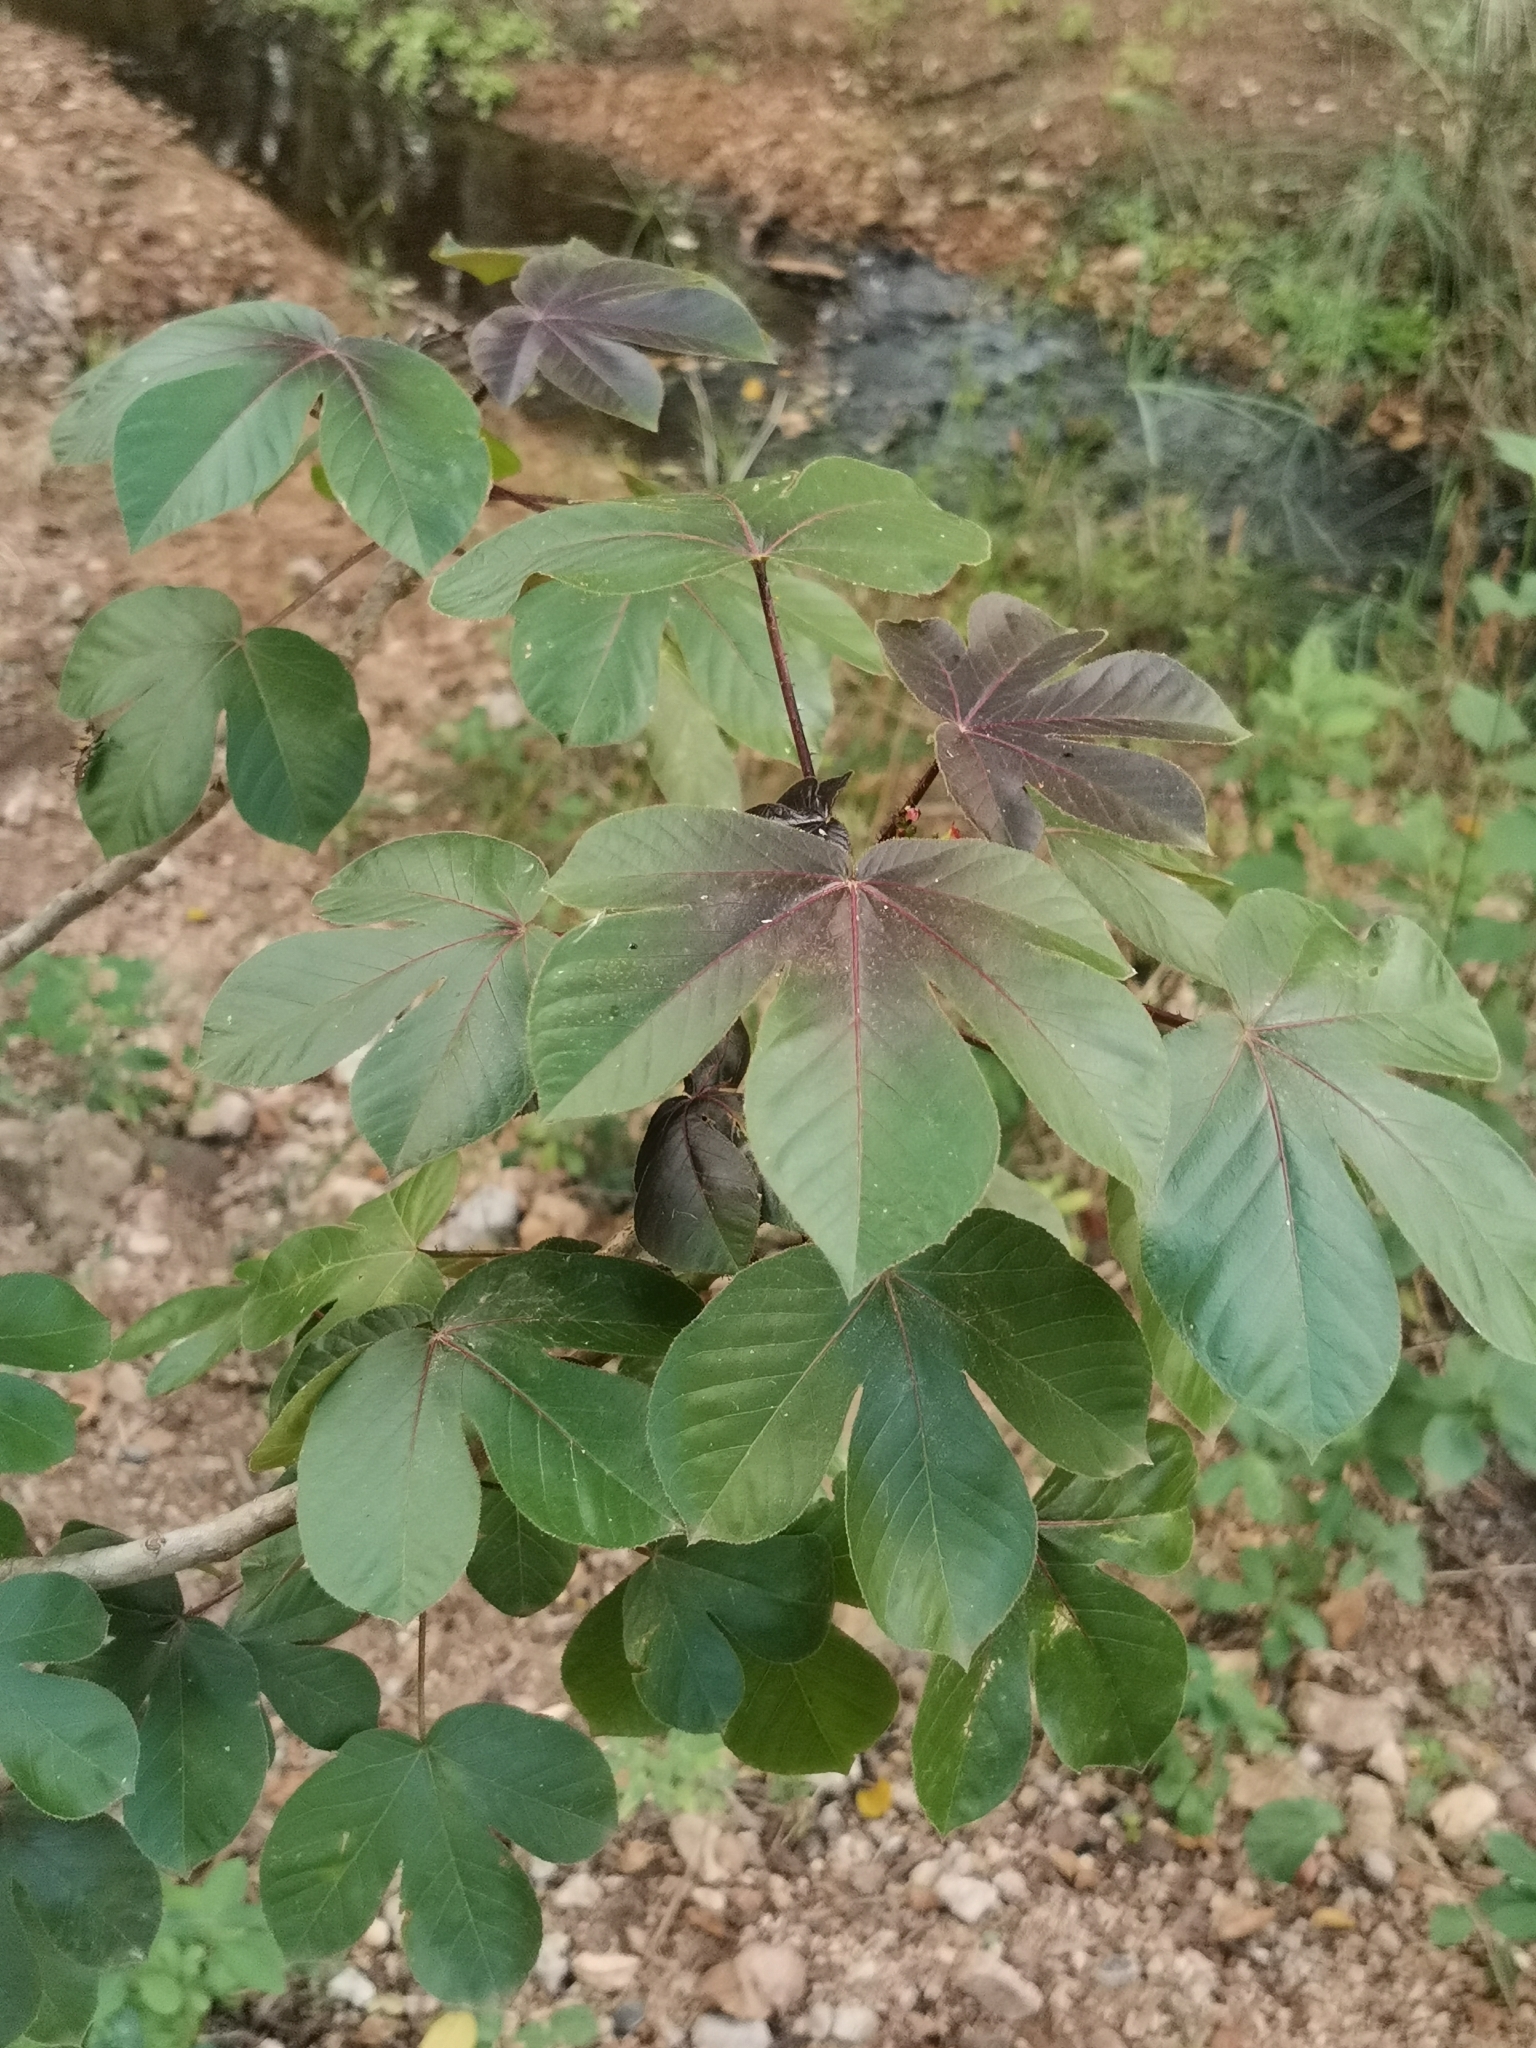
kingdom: Plantae
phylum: Tracheophyta
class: Magnoliopsida
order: Malpighiales
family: Euphorbiaceae
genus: Jatropha
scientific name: Jatropha gossypiifolia
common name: Bellyache bush
